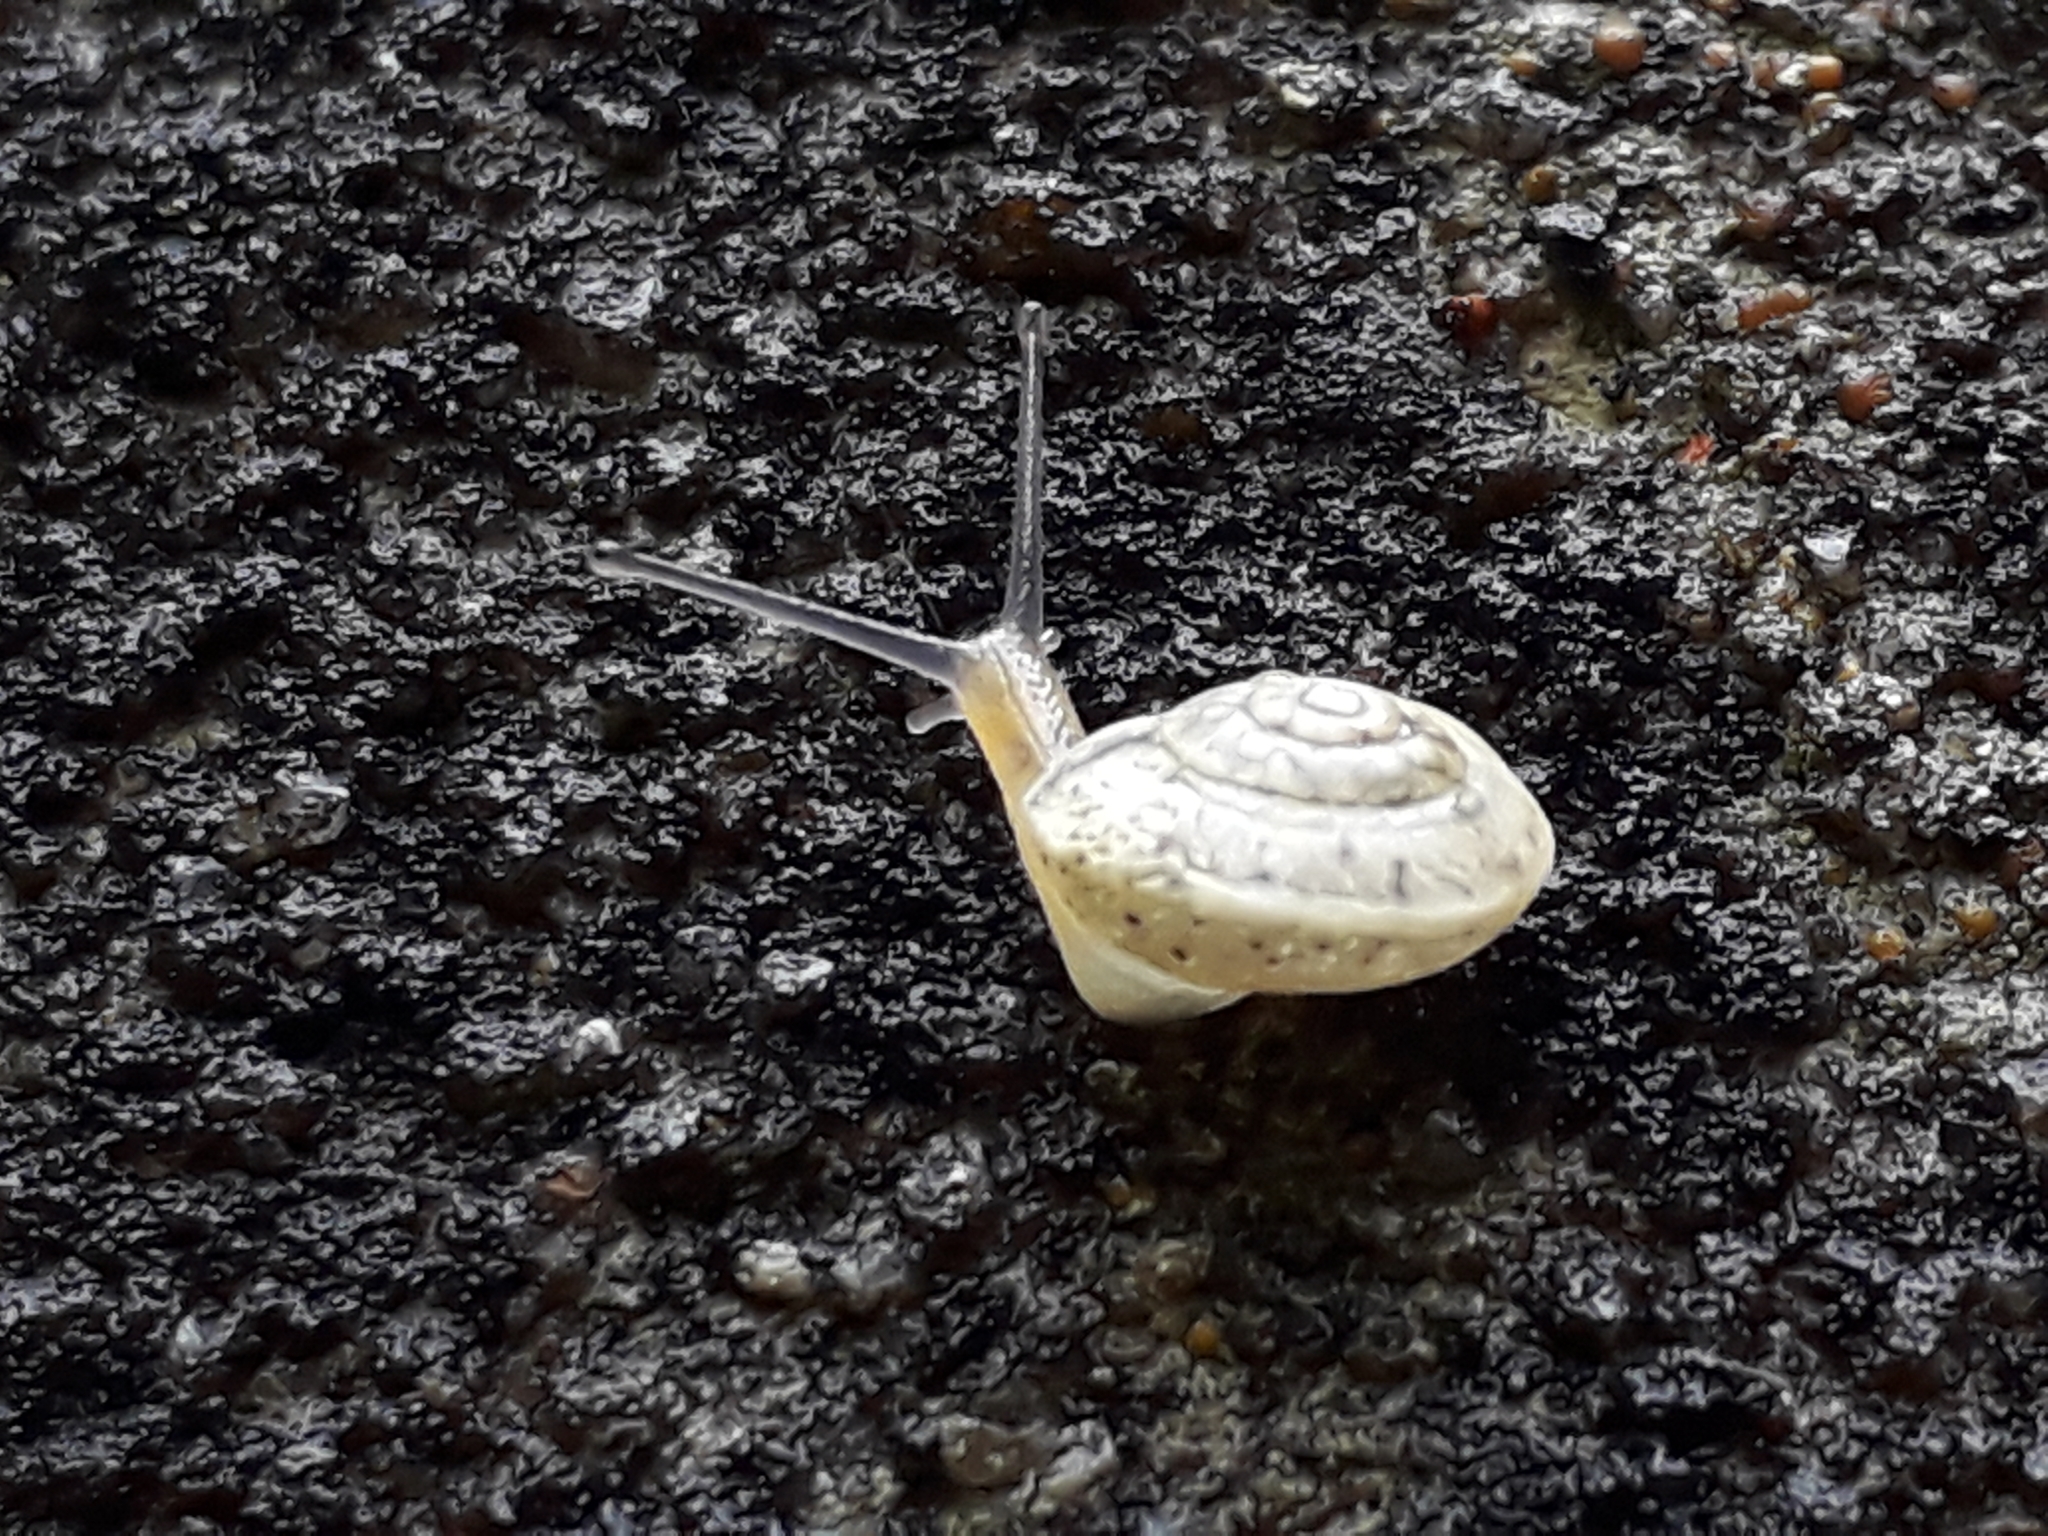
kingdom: Animalia
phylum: Mollusca
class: Gastropoda
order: Stylommatophora
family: Hygromiidae
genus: Hygromia
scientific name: Hygromia cinctella
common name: Girdled snail
